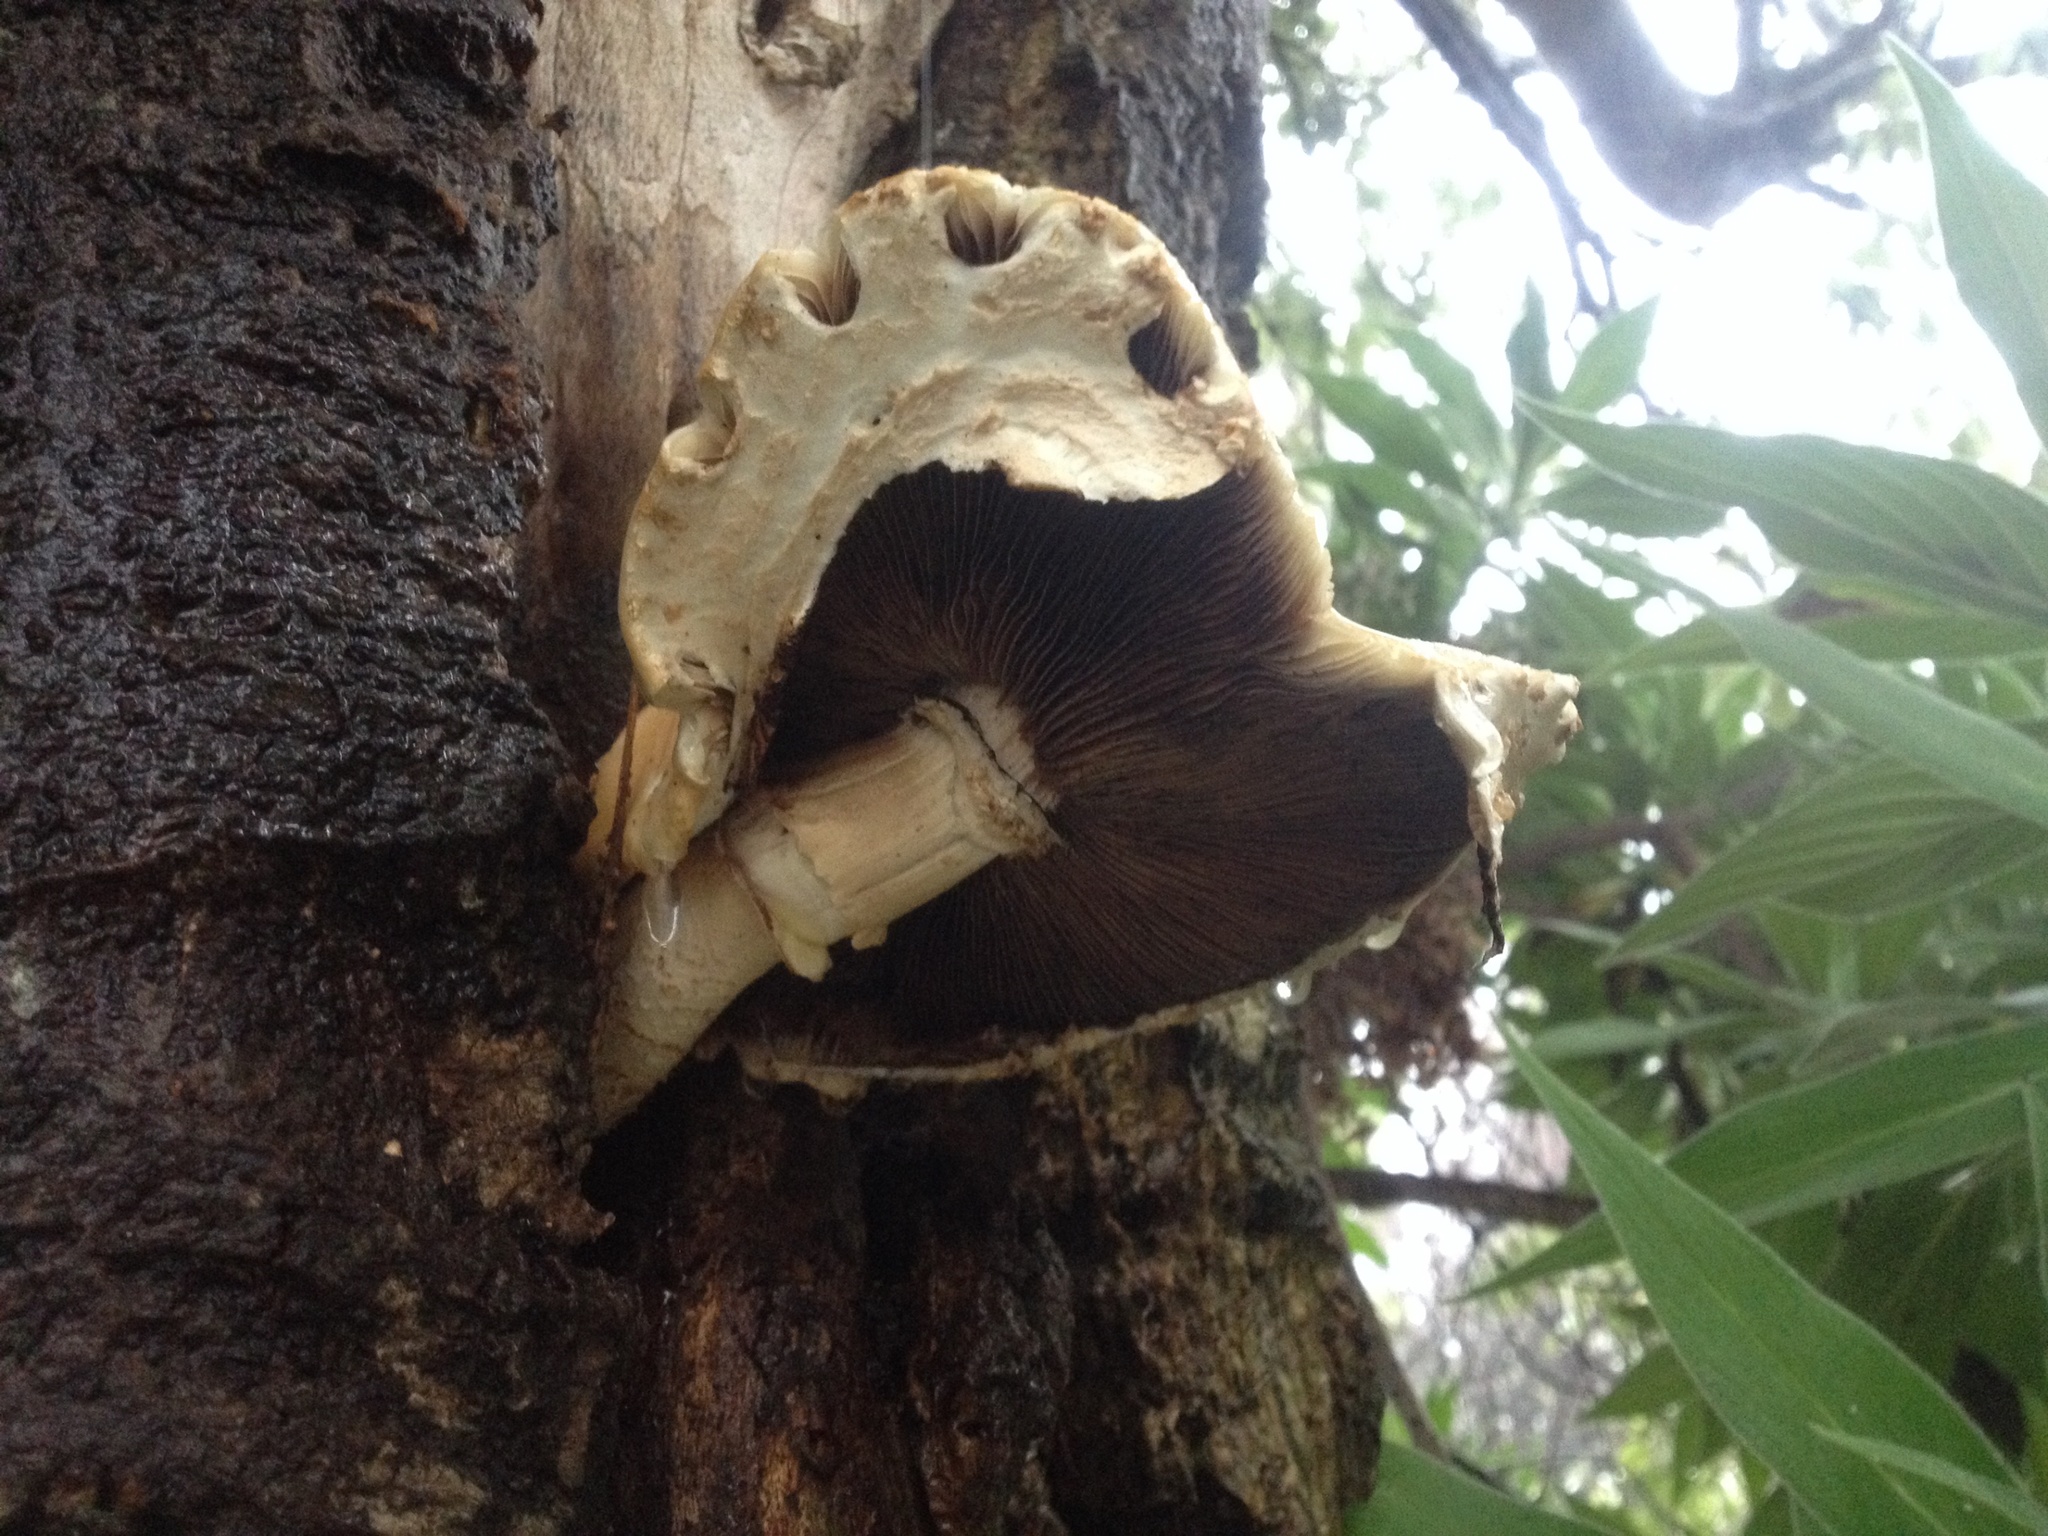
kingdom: Fungi
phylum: Basidiomycota
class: Agaricomycetes
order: Agaricales
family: Tubariaceae
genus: Cyclocybe
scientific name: Cyclocybe parasitica
